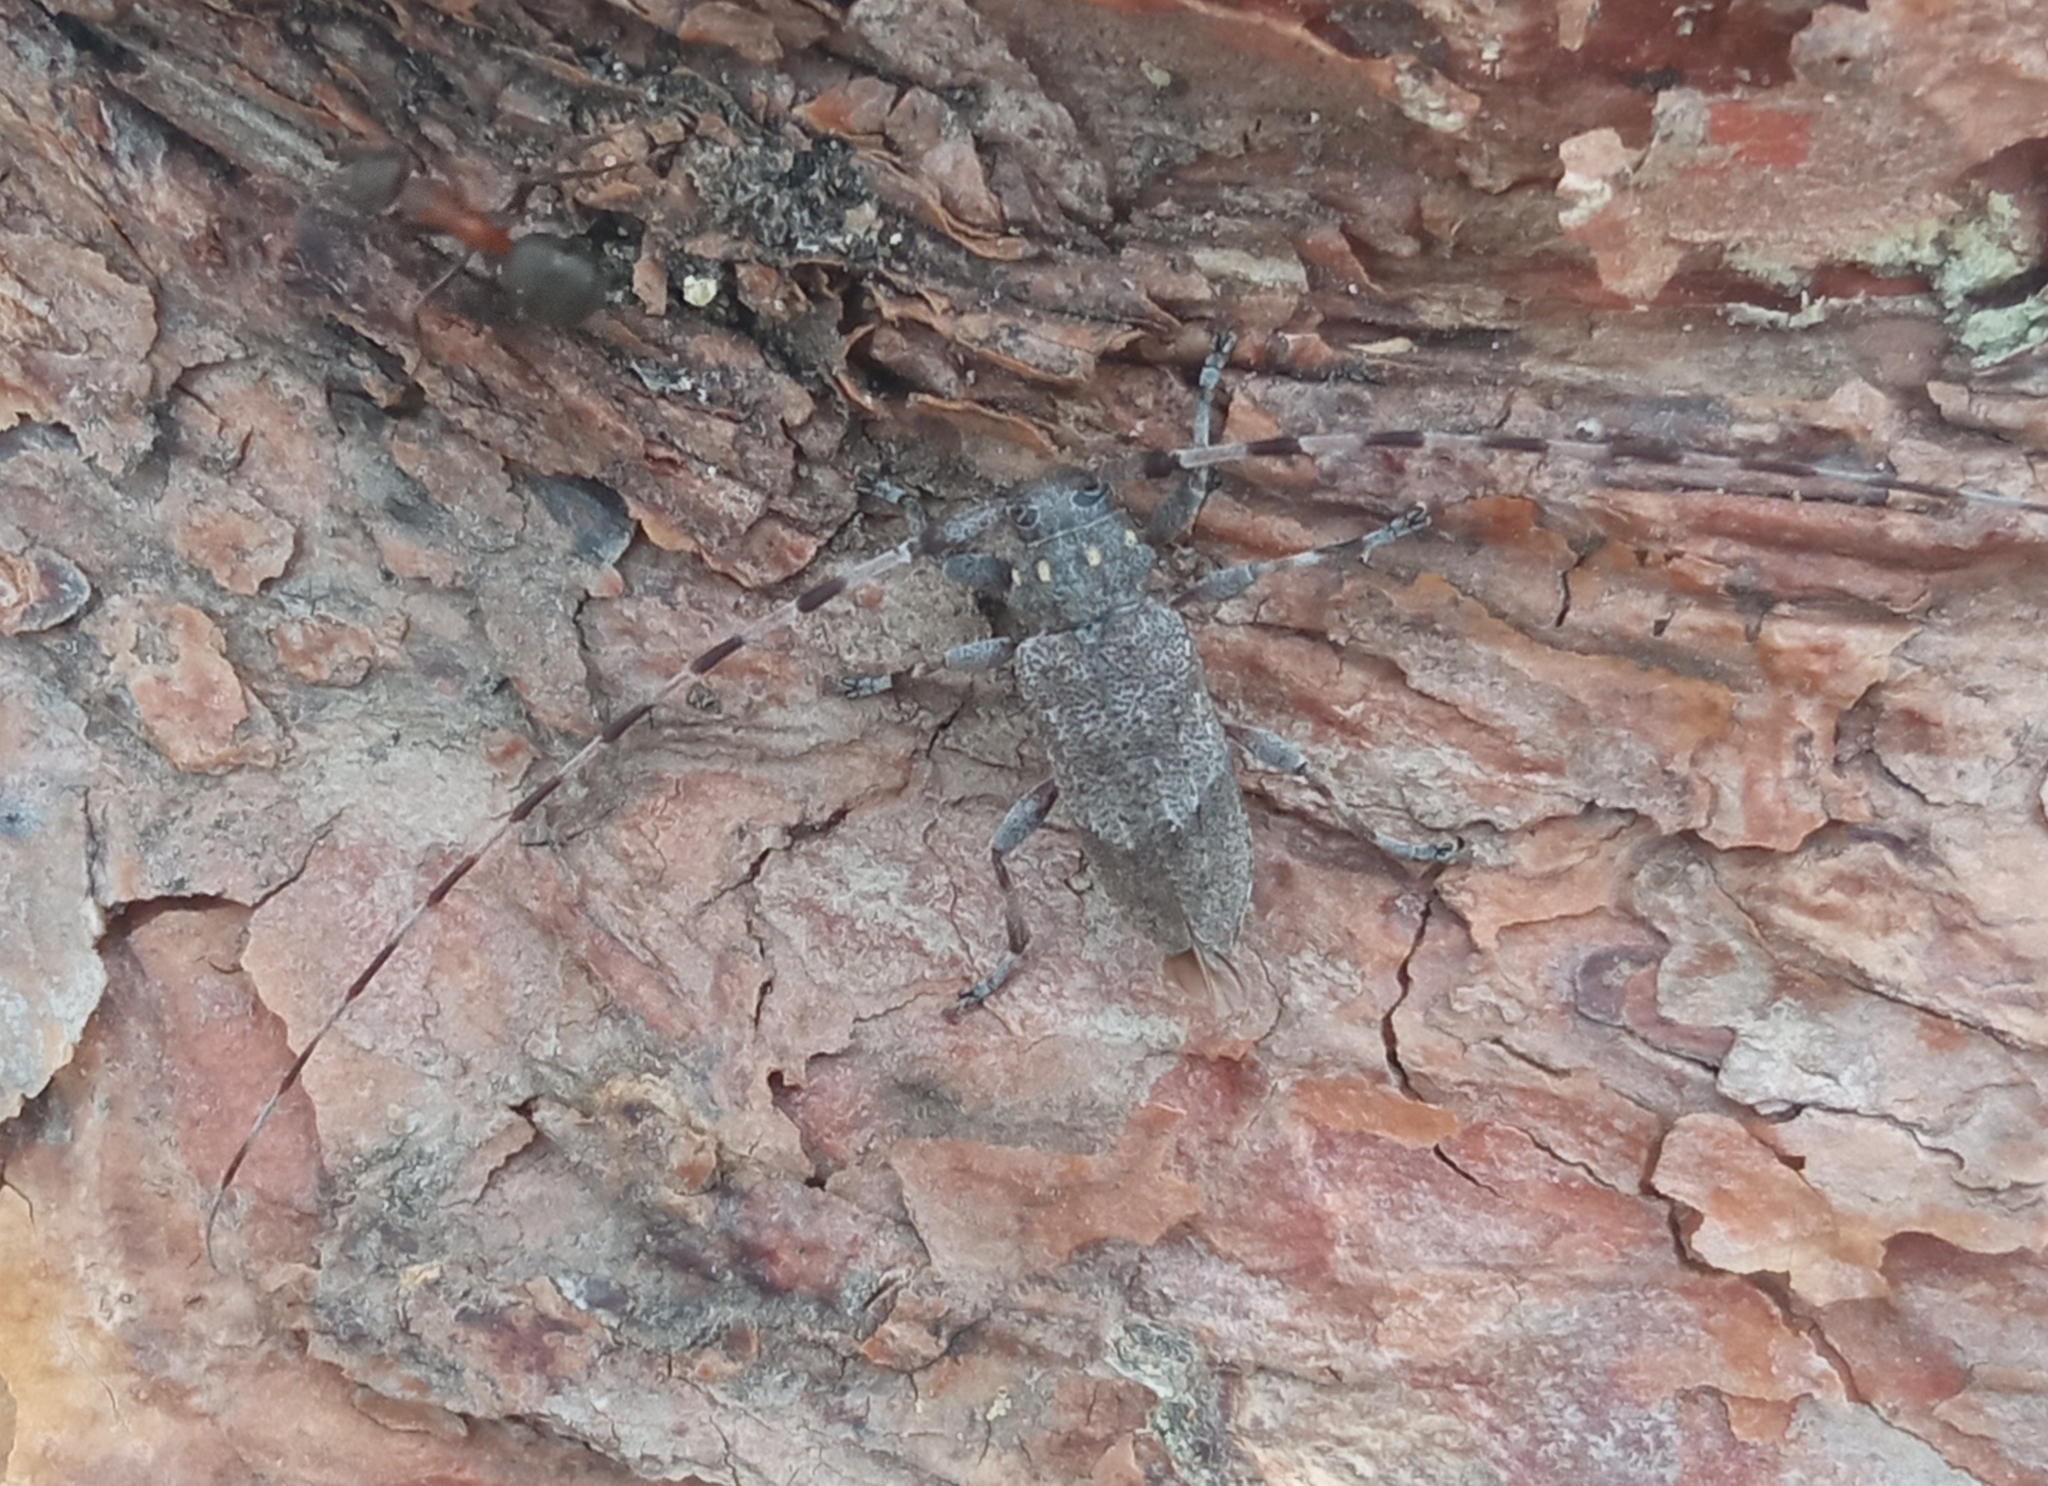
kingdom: Animalia
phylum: Arthropoda
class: Insecta
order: Coleoptera
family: Cerambycidae
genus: Acanthocinus
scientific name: Acanthocinus aedilis
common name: Timberman beetle
